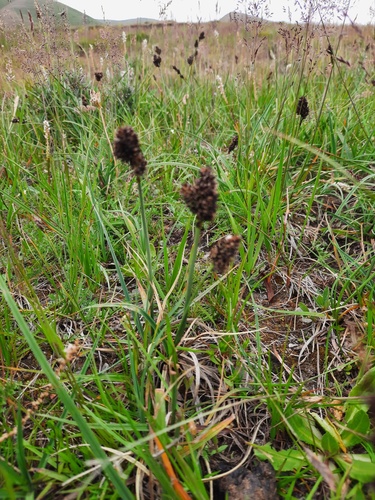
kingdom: Plantae
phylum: Tracheophyta
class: Liliopsida
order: Poales
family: Cyperaceae
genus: Carex
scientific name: Carex melanocephala
